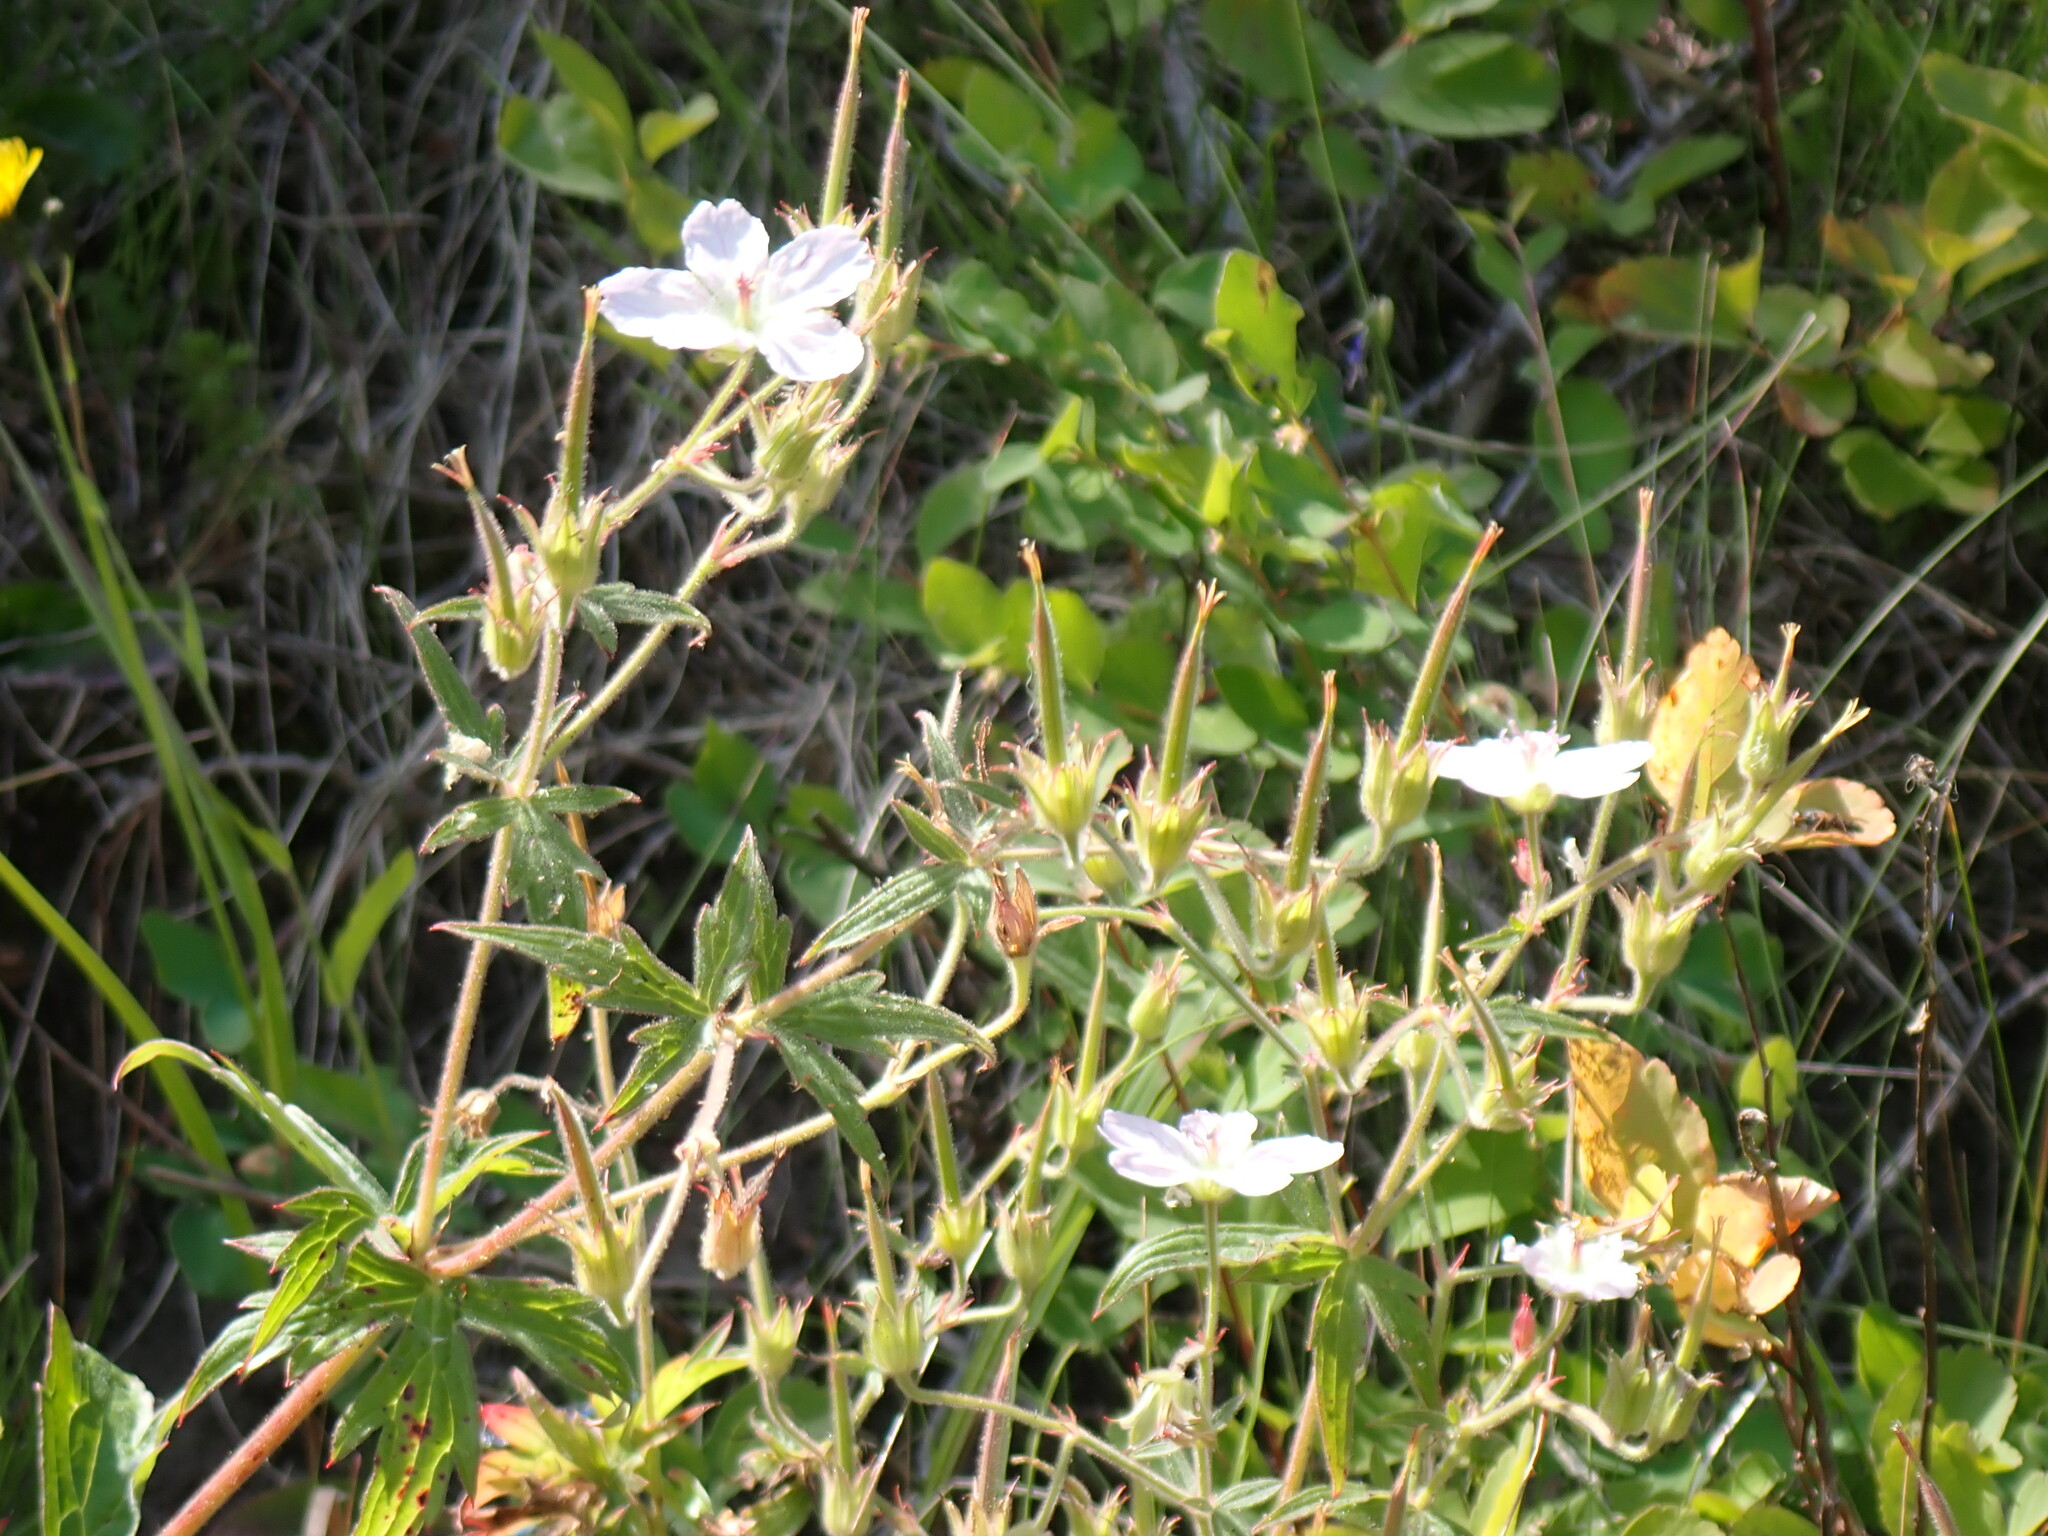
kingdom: Plantae
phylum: Tracheophyta
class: Magnoliopsida
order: Geraniales
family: Geraniaceae
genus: Geranium
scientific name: Geranium richardsonii
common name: Richardson's crane's-bill
